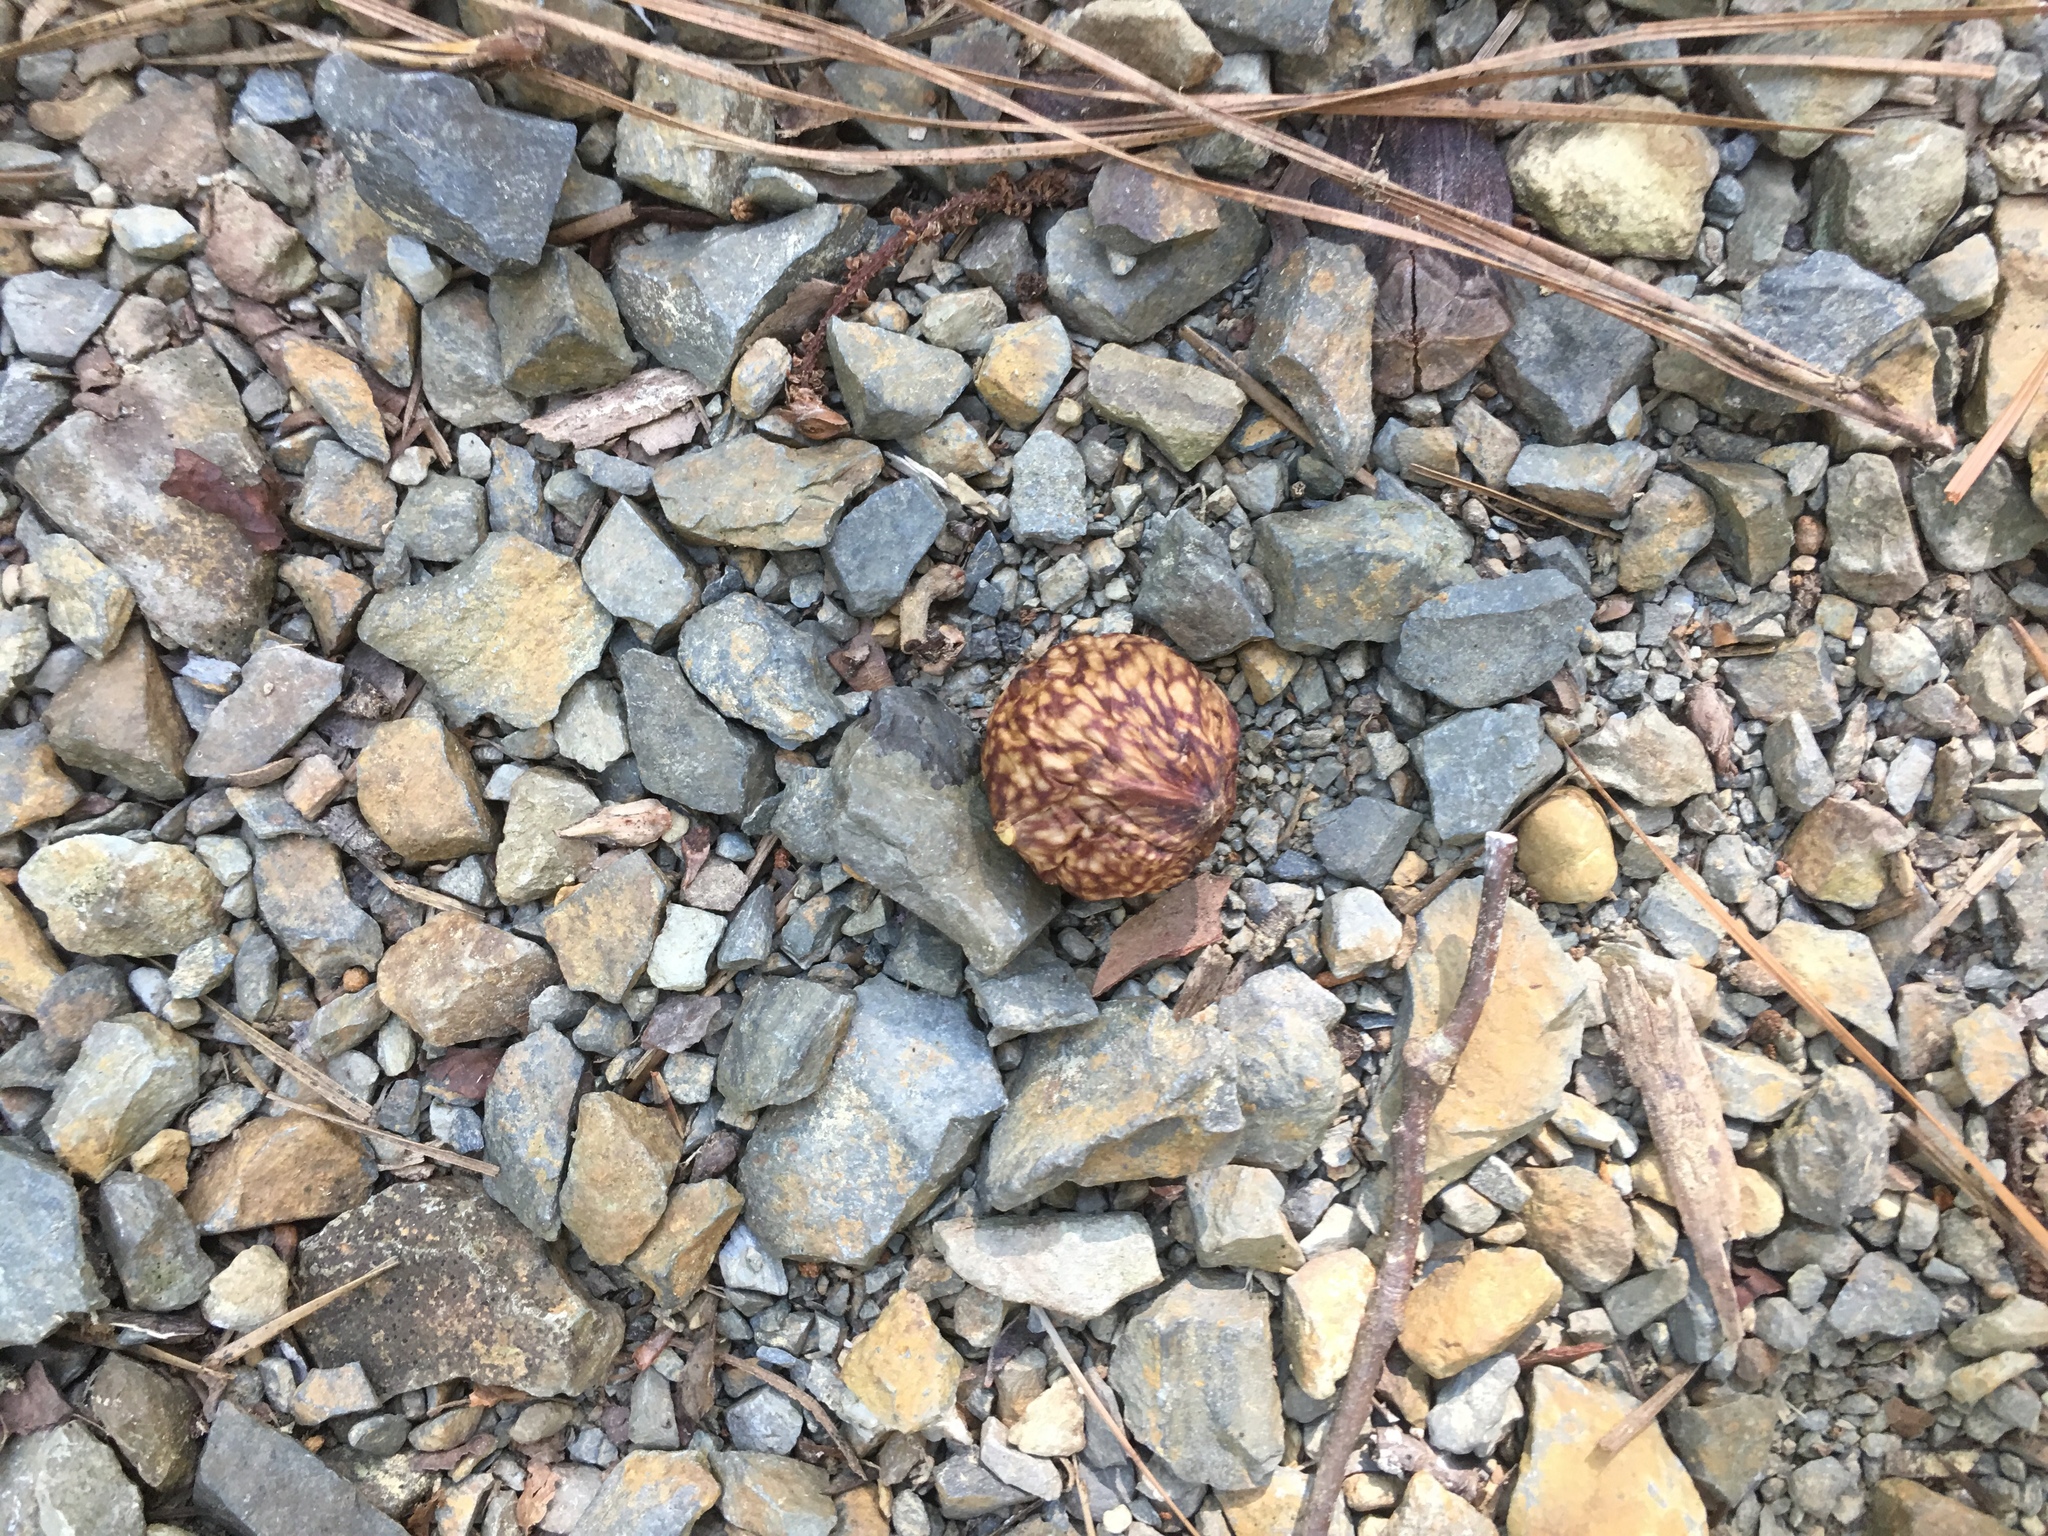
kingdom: Animalia
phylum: Arthropoda
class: Insecta
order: Hymenoptera
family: Cynipidae
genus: Amphibolips
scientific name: Amphibolips
